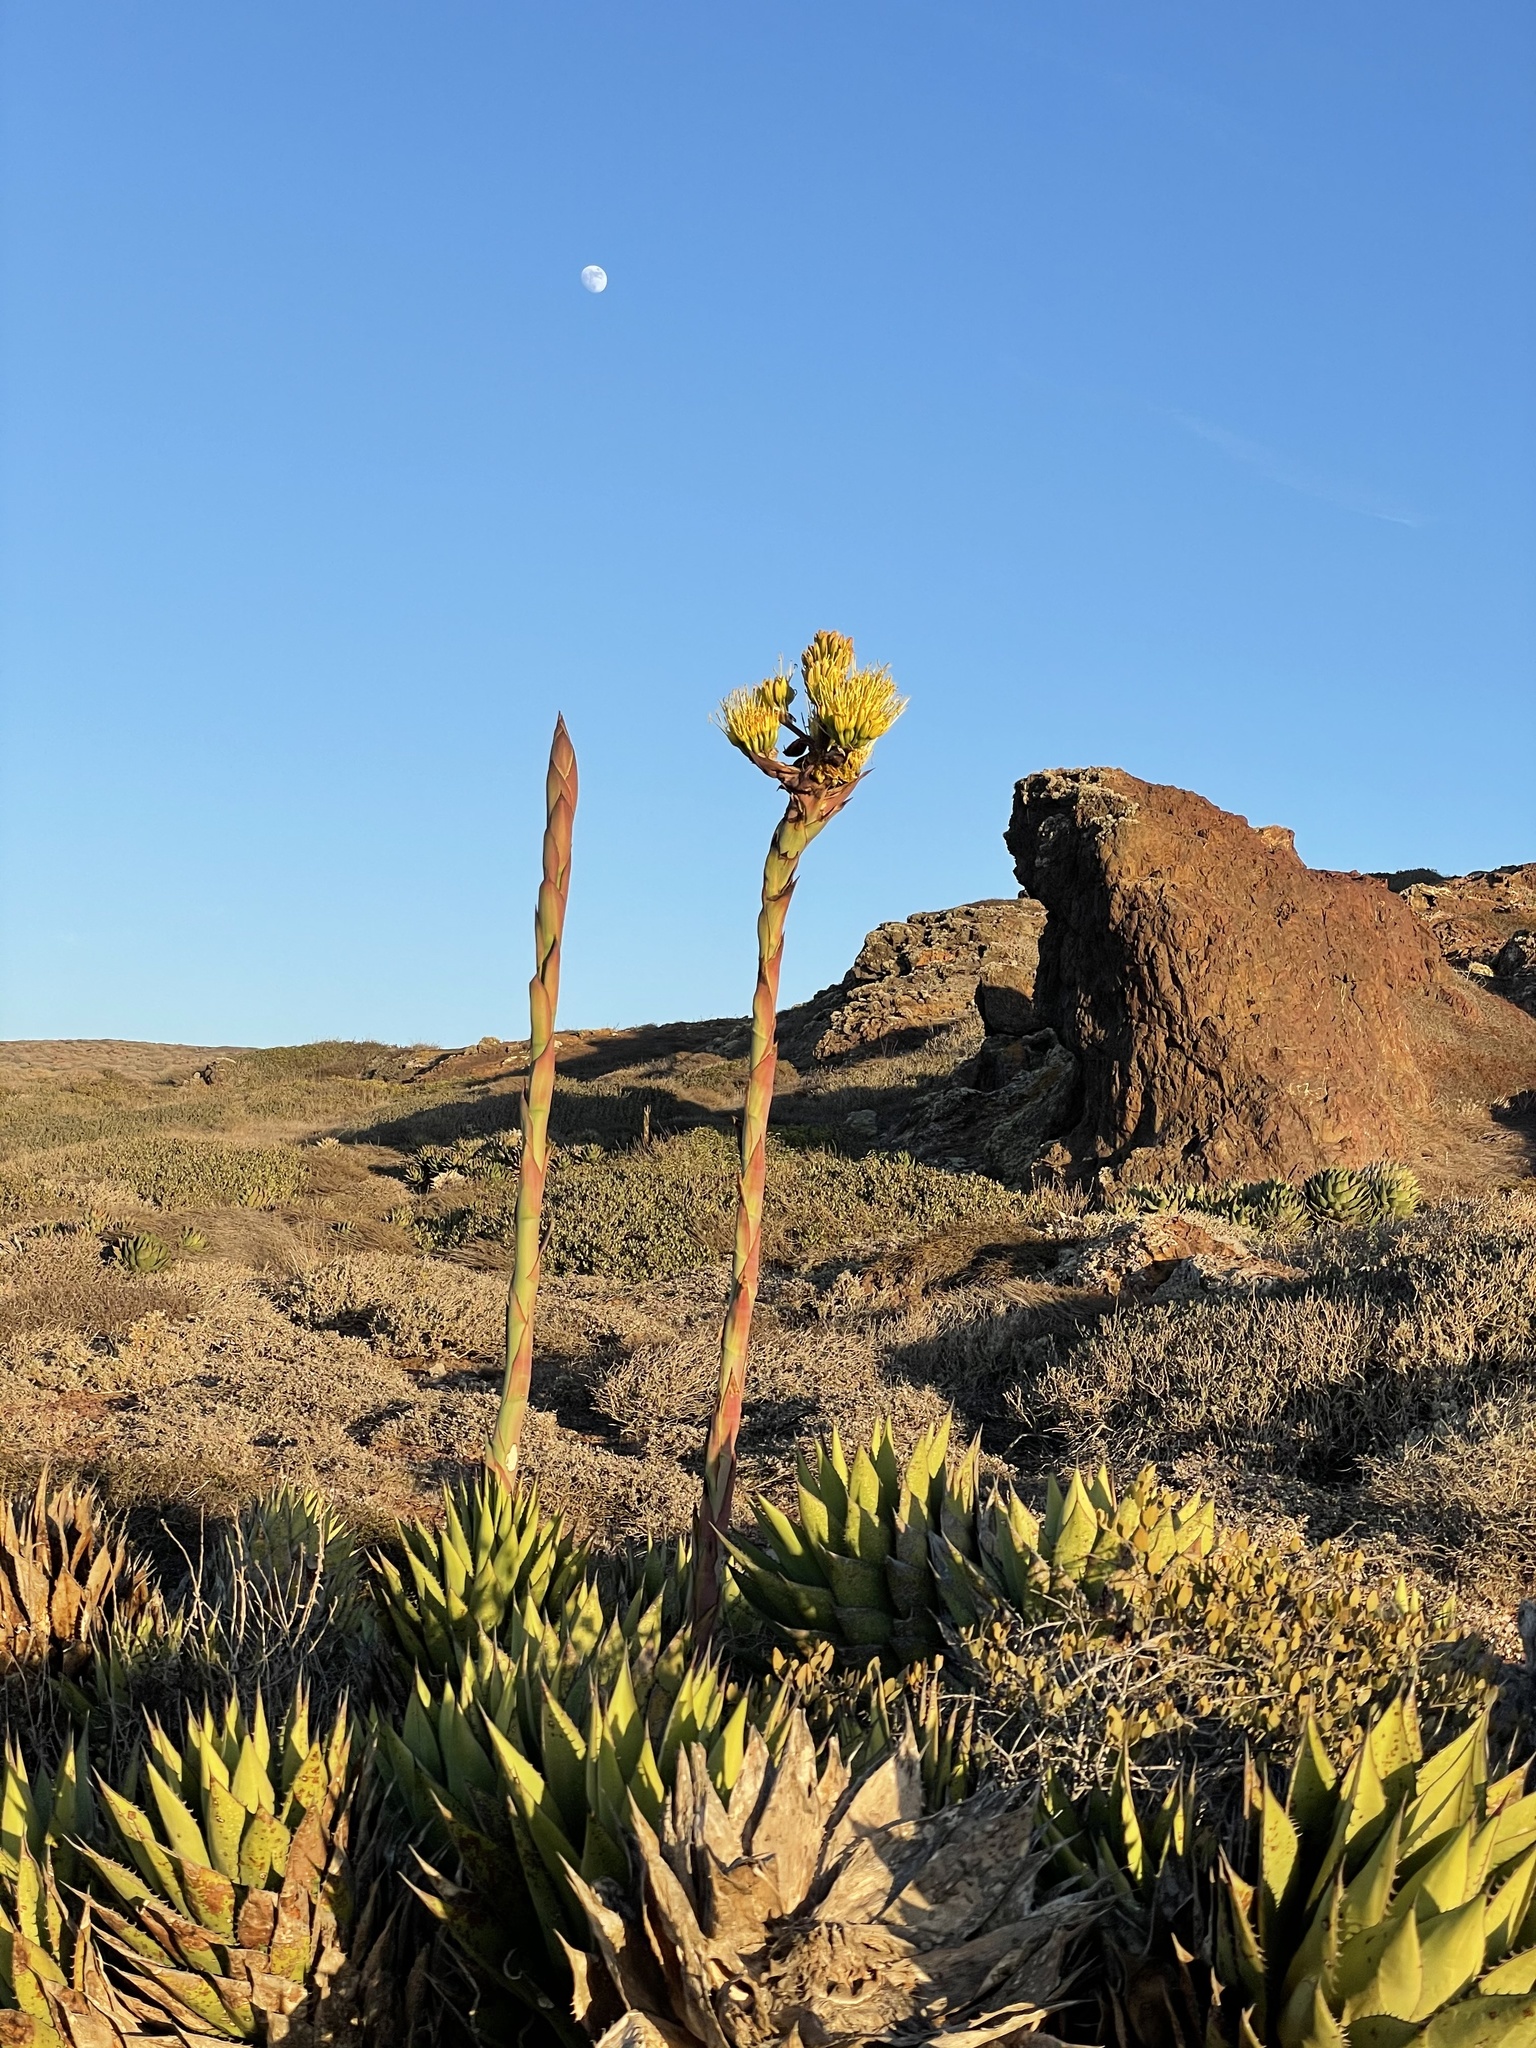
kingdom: Plantae
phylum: Tracheophyta
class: Liliopsida
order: Asparagales
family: Asparagaceae
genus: Agave
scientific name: Agave shawii
